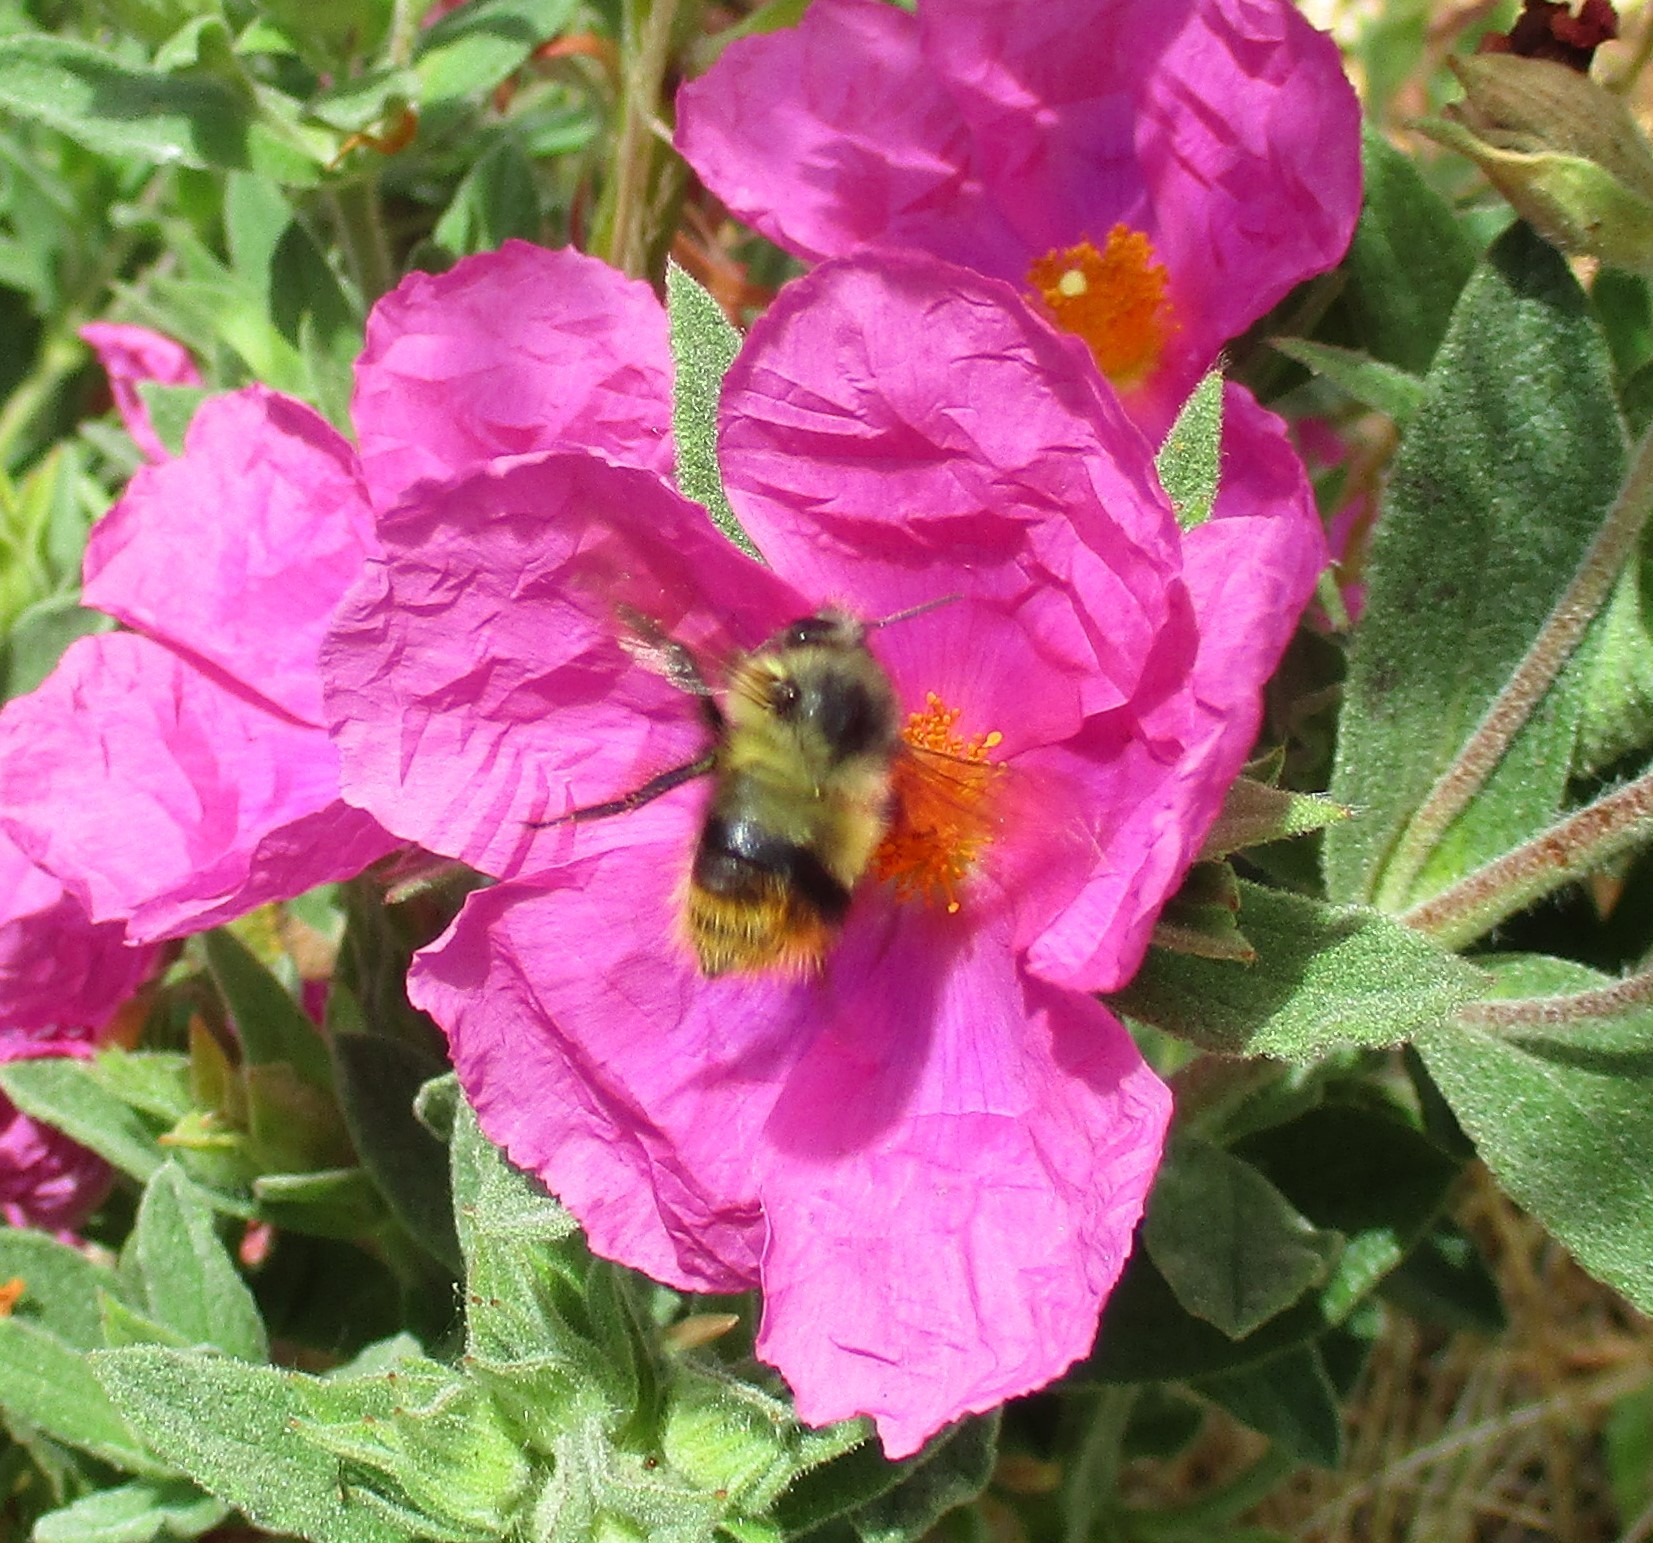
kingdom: Animalia
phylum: Arthropoda
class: Insecta
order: Hymenoptera
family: Apidae
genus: Bombus
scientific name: Bombus mixtus
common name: Fuzzy-horned bumble bee
